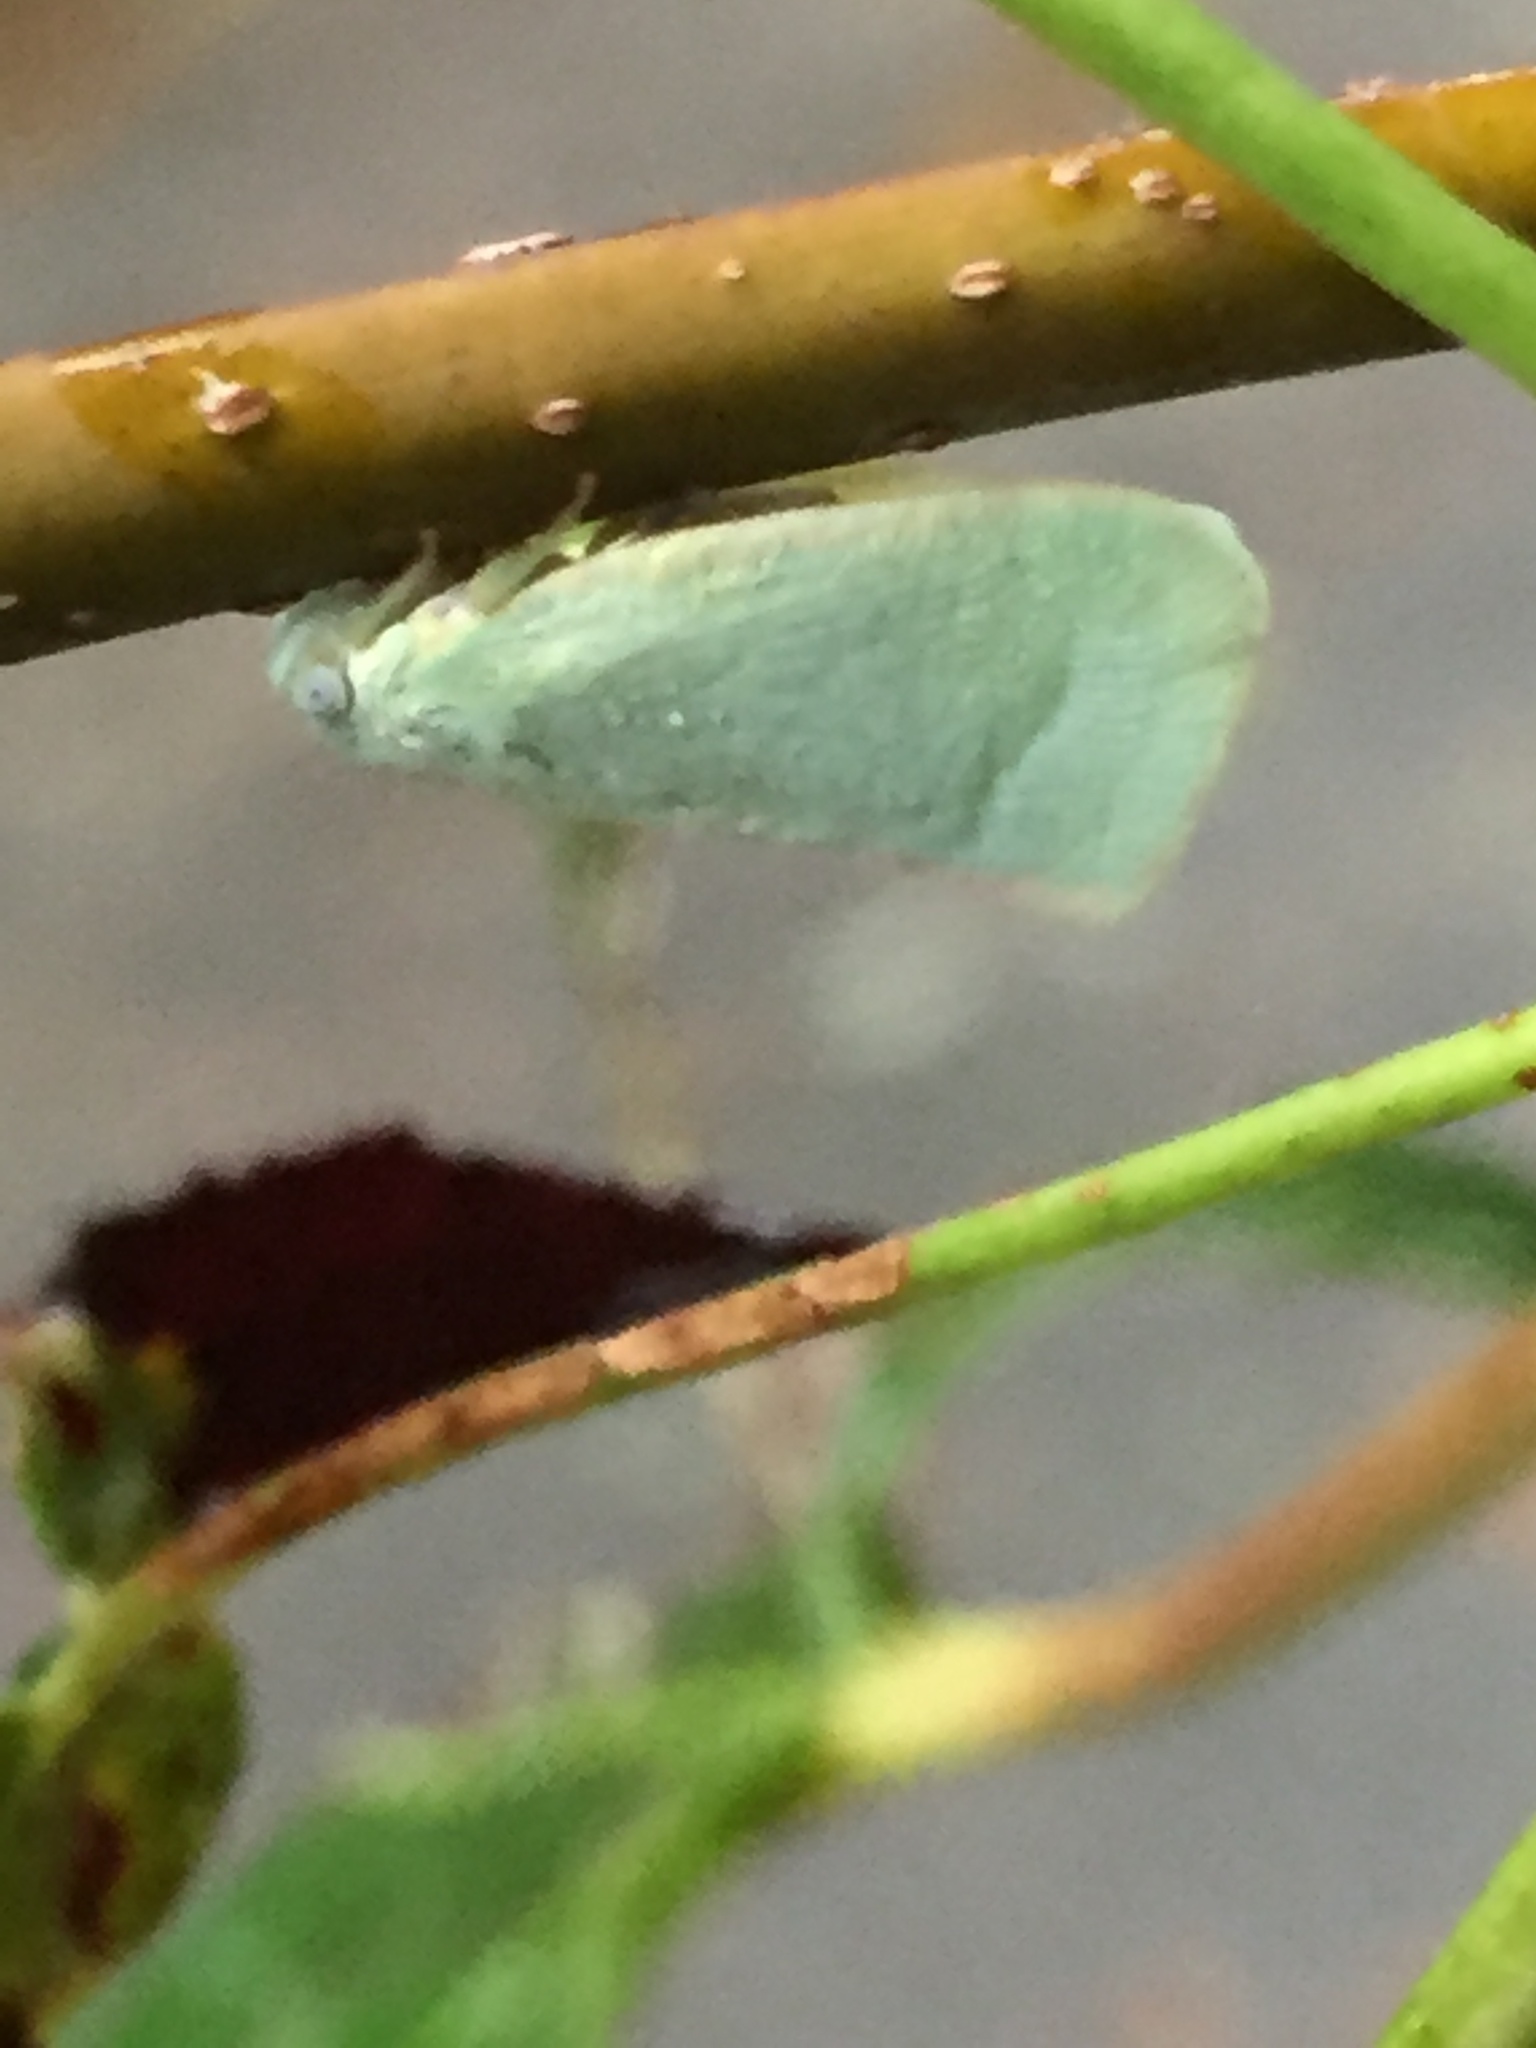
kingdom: Animalia
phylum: Arthropoda
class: Insecta
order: Hemiptera
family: Flatidae
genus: Flatormenis
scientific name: Flatormenis proxima
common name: Northern flatid planthopper
